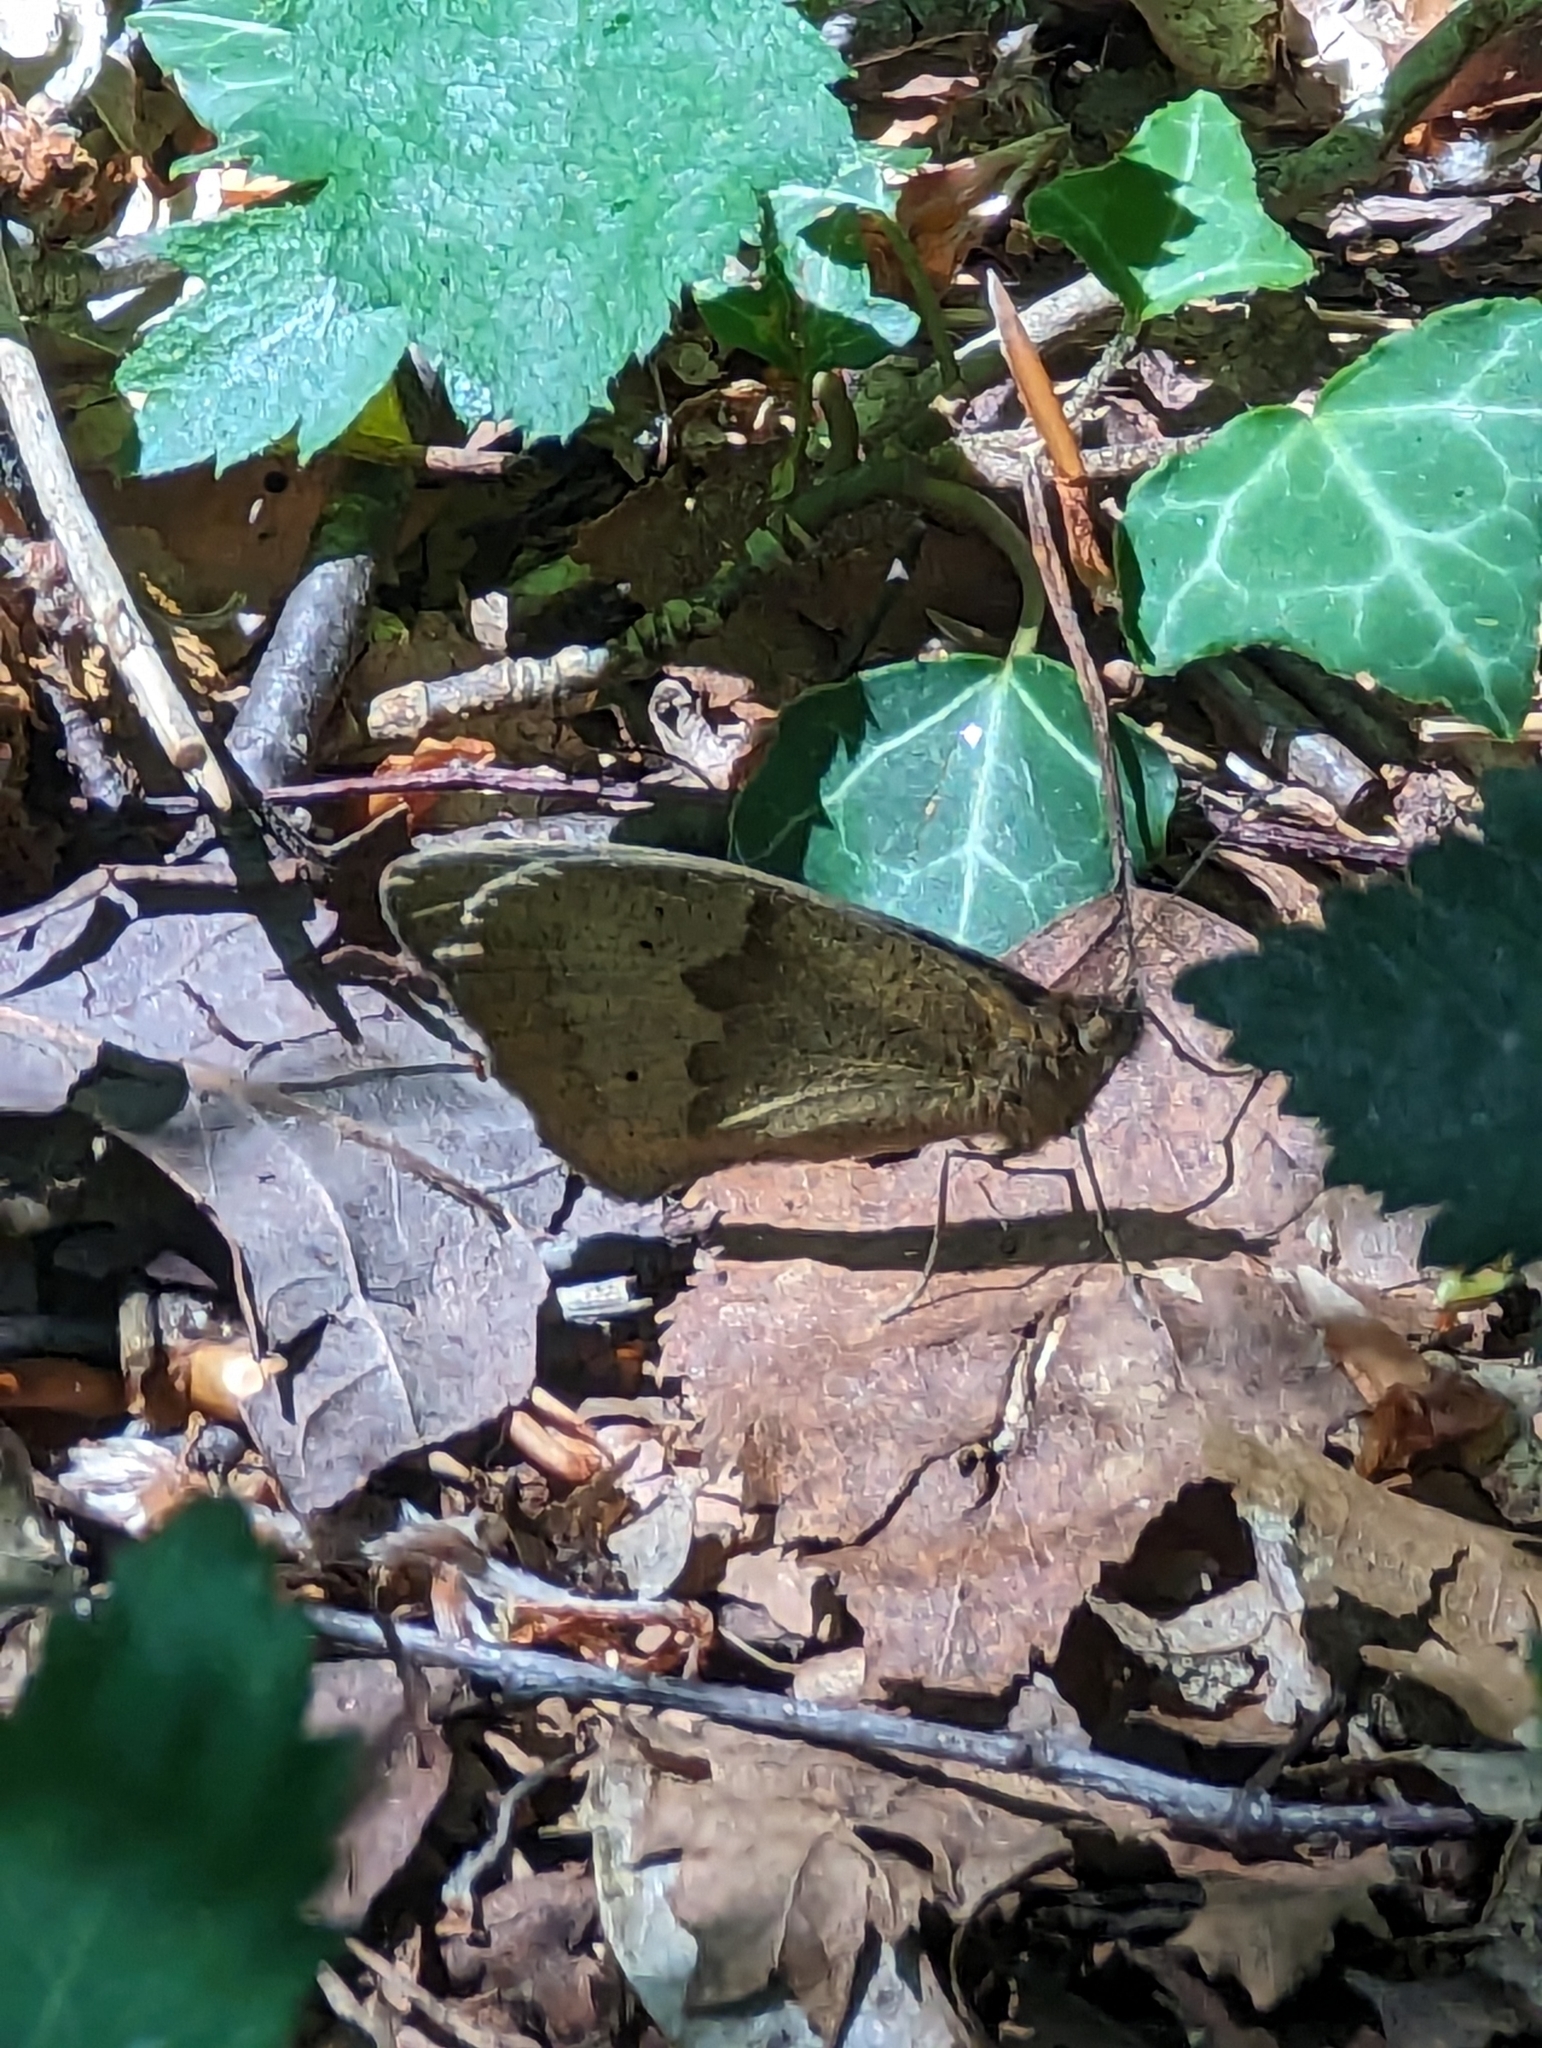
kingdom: Animalia
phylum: Arthropoda
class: Insecta
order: Lepidoptera
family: Nymphalidae
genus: Maniola
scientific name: Maniola jurtina
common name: Meadow brown
